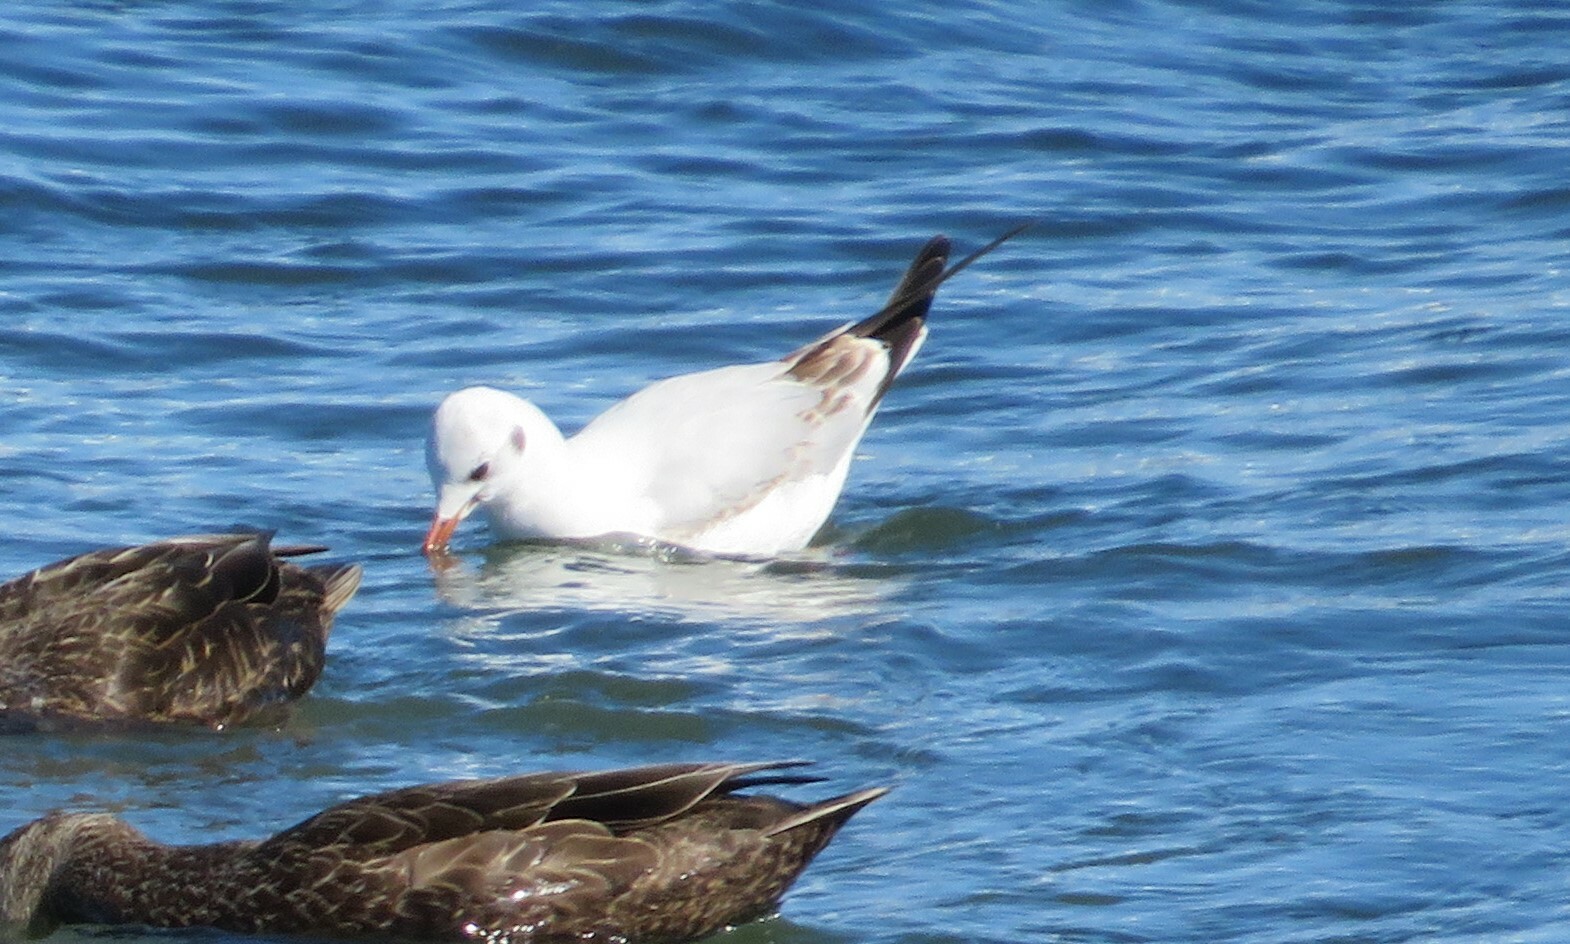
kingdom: Animalia
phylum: Chordata
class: Aves
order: Charadriiformes
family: Laridae
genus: Chroicocephalus
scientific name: Chroicocephalus ridibundus
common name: Black-headed gull
